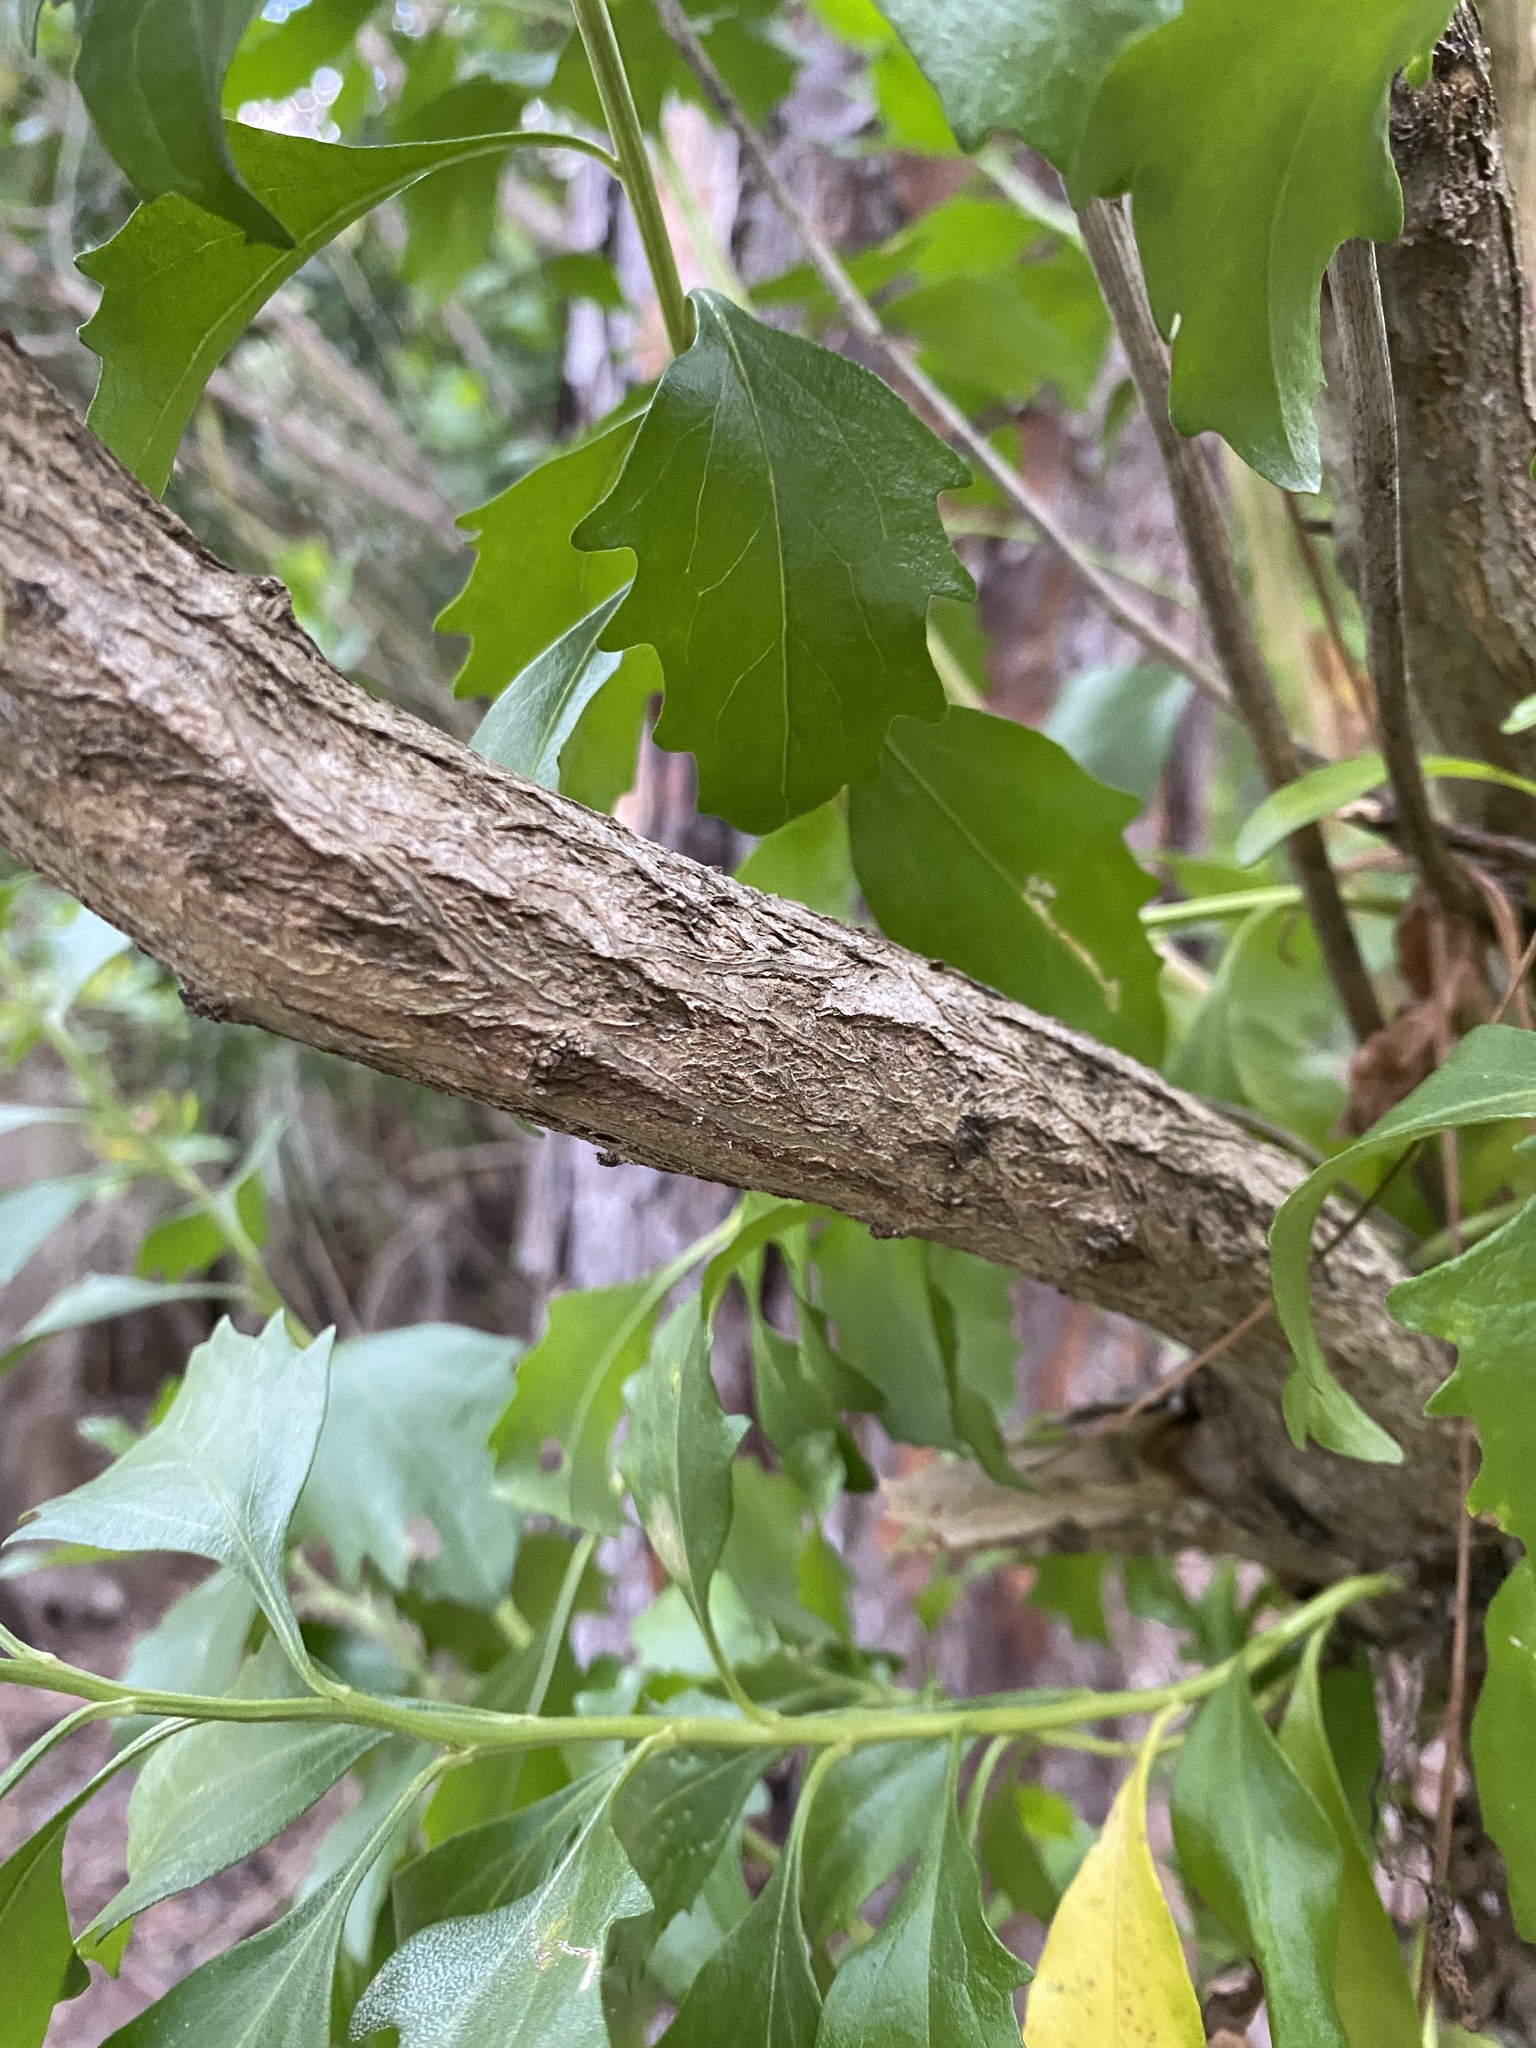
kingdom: Plantae
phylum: Tracheophyta
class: Magnoliopsida
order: Asterales
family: Asteraceae
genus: Baccharis
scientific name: Baccharis halimifolia
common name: Eastern baccharis
